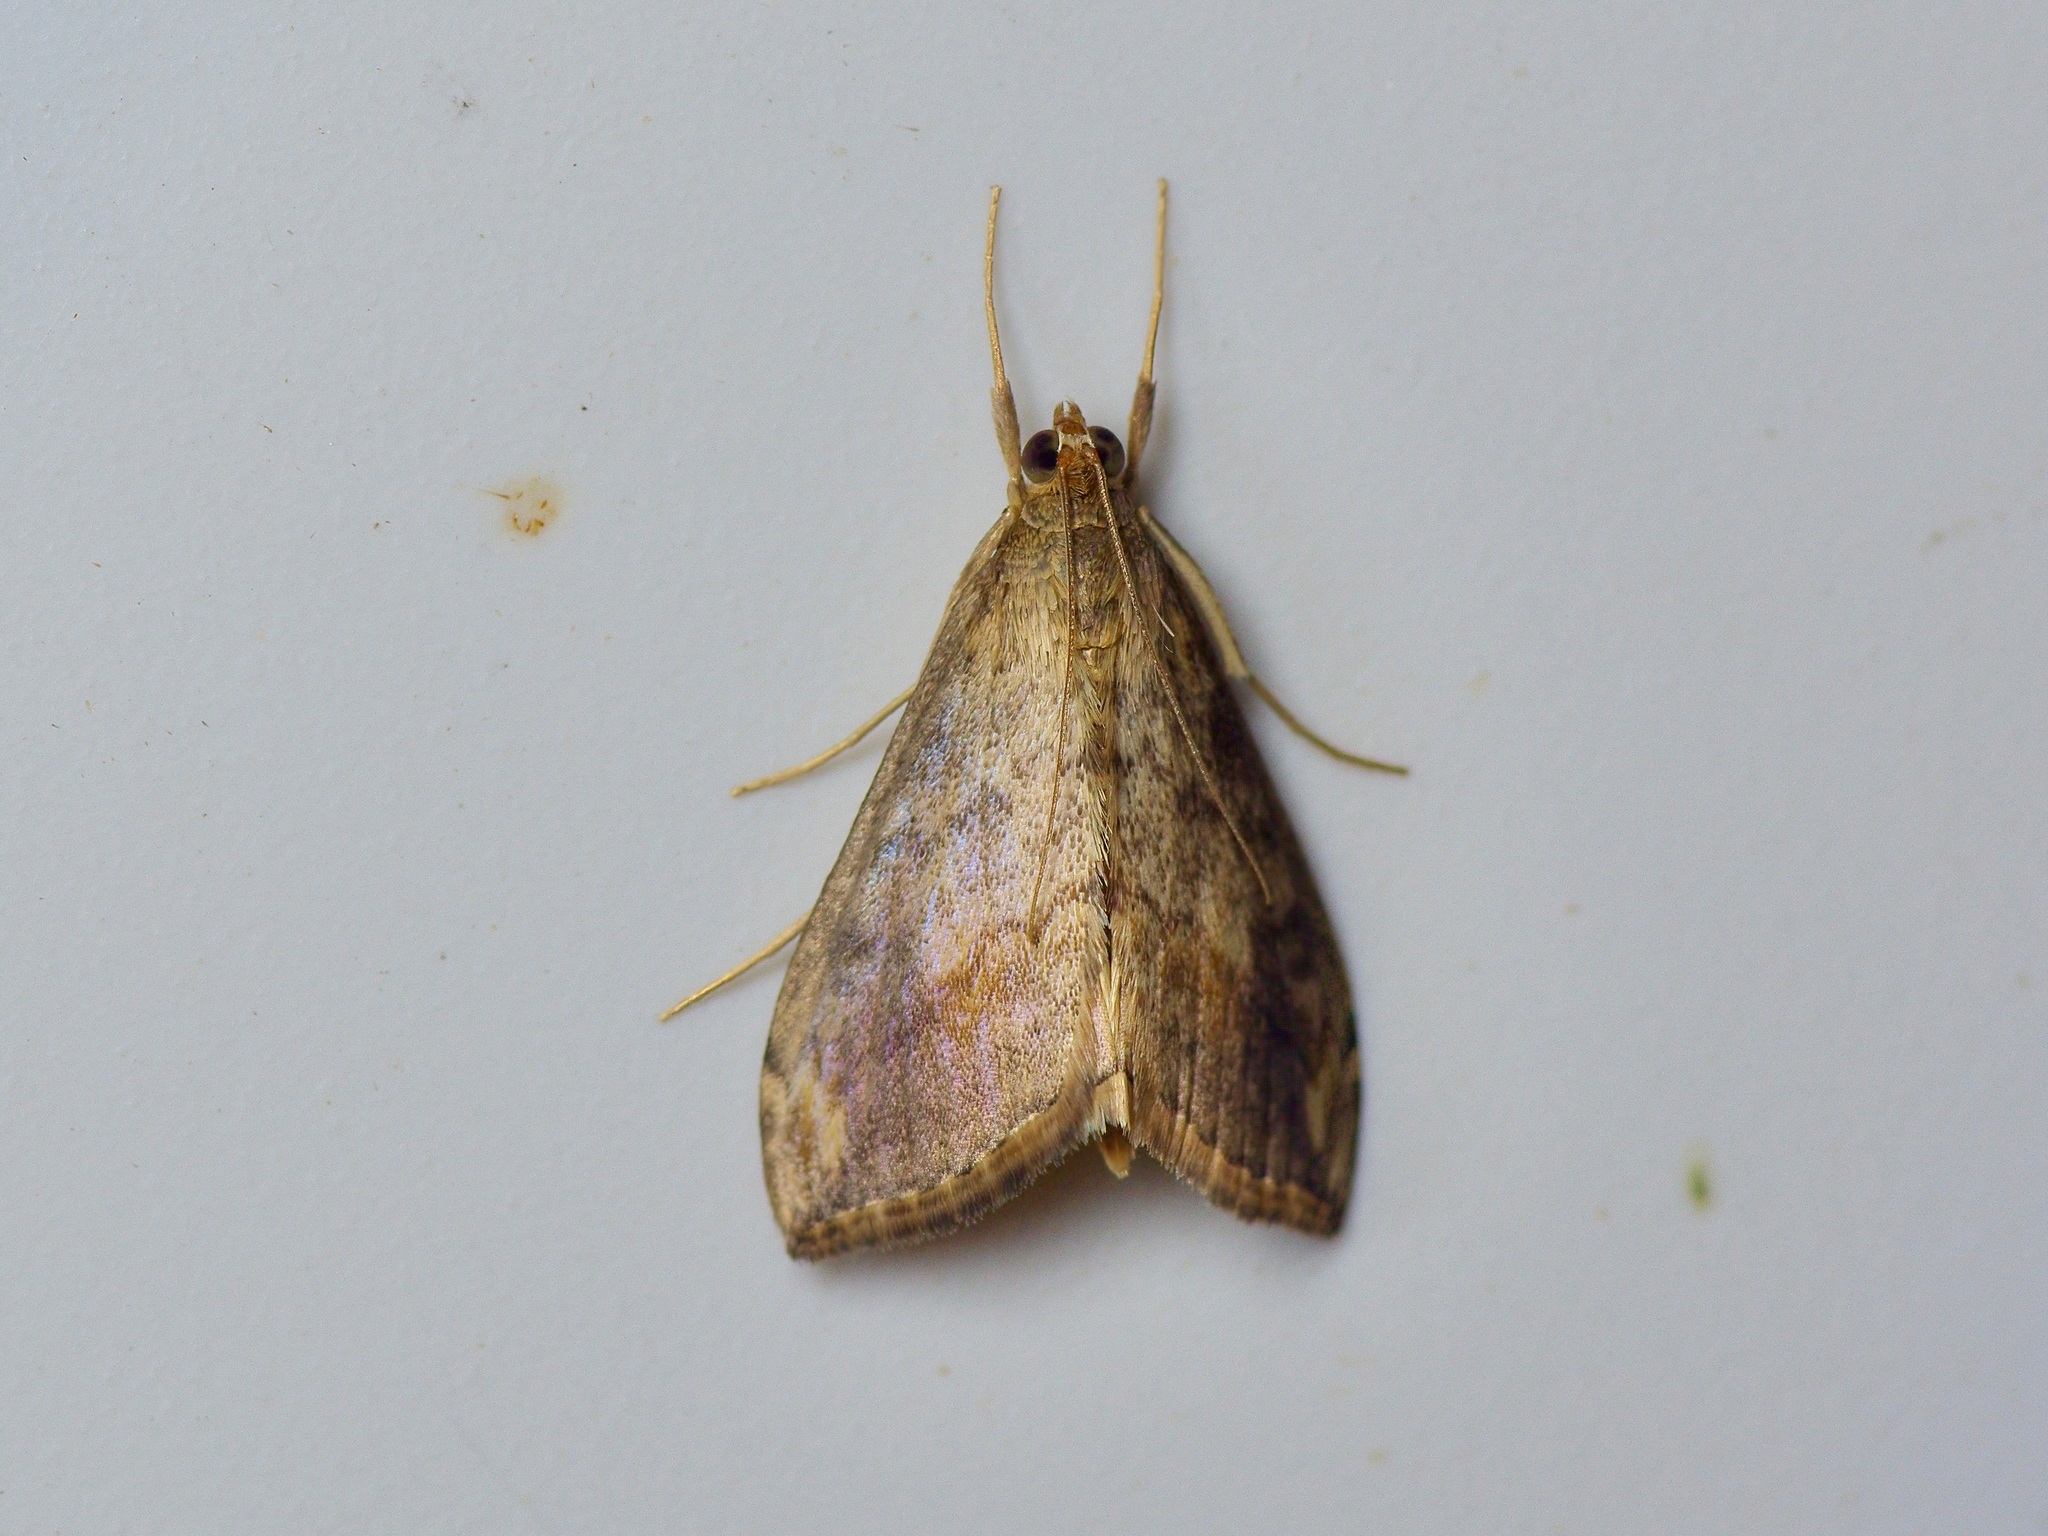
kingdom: Animalia
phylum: Arthropoda
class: Insecta
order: Lepidoptera
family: Crambidae
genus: Evergestis
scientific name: Evergestis rimosalis
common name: Cross-striped cabbageworm moth
